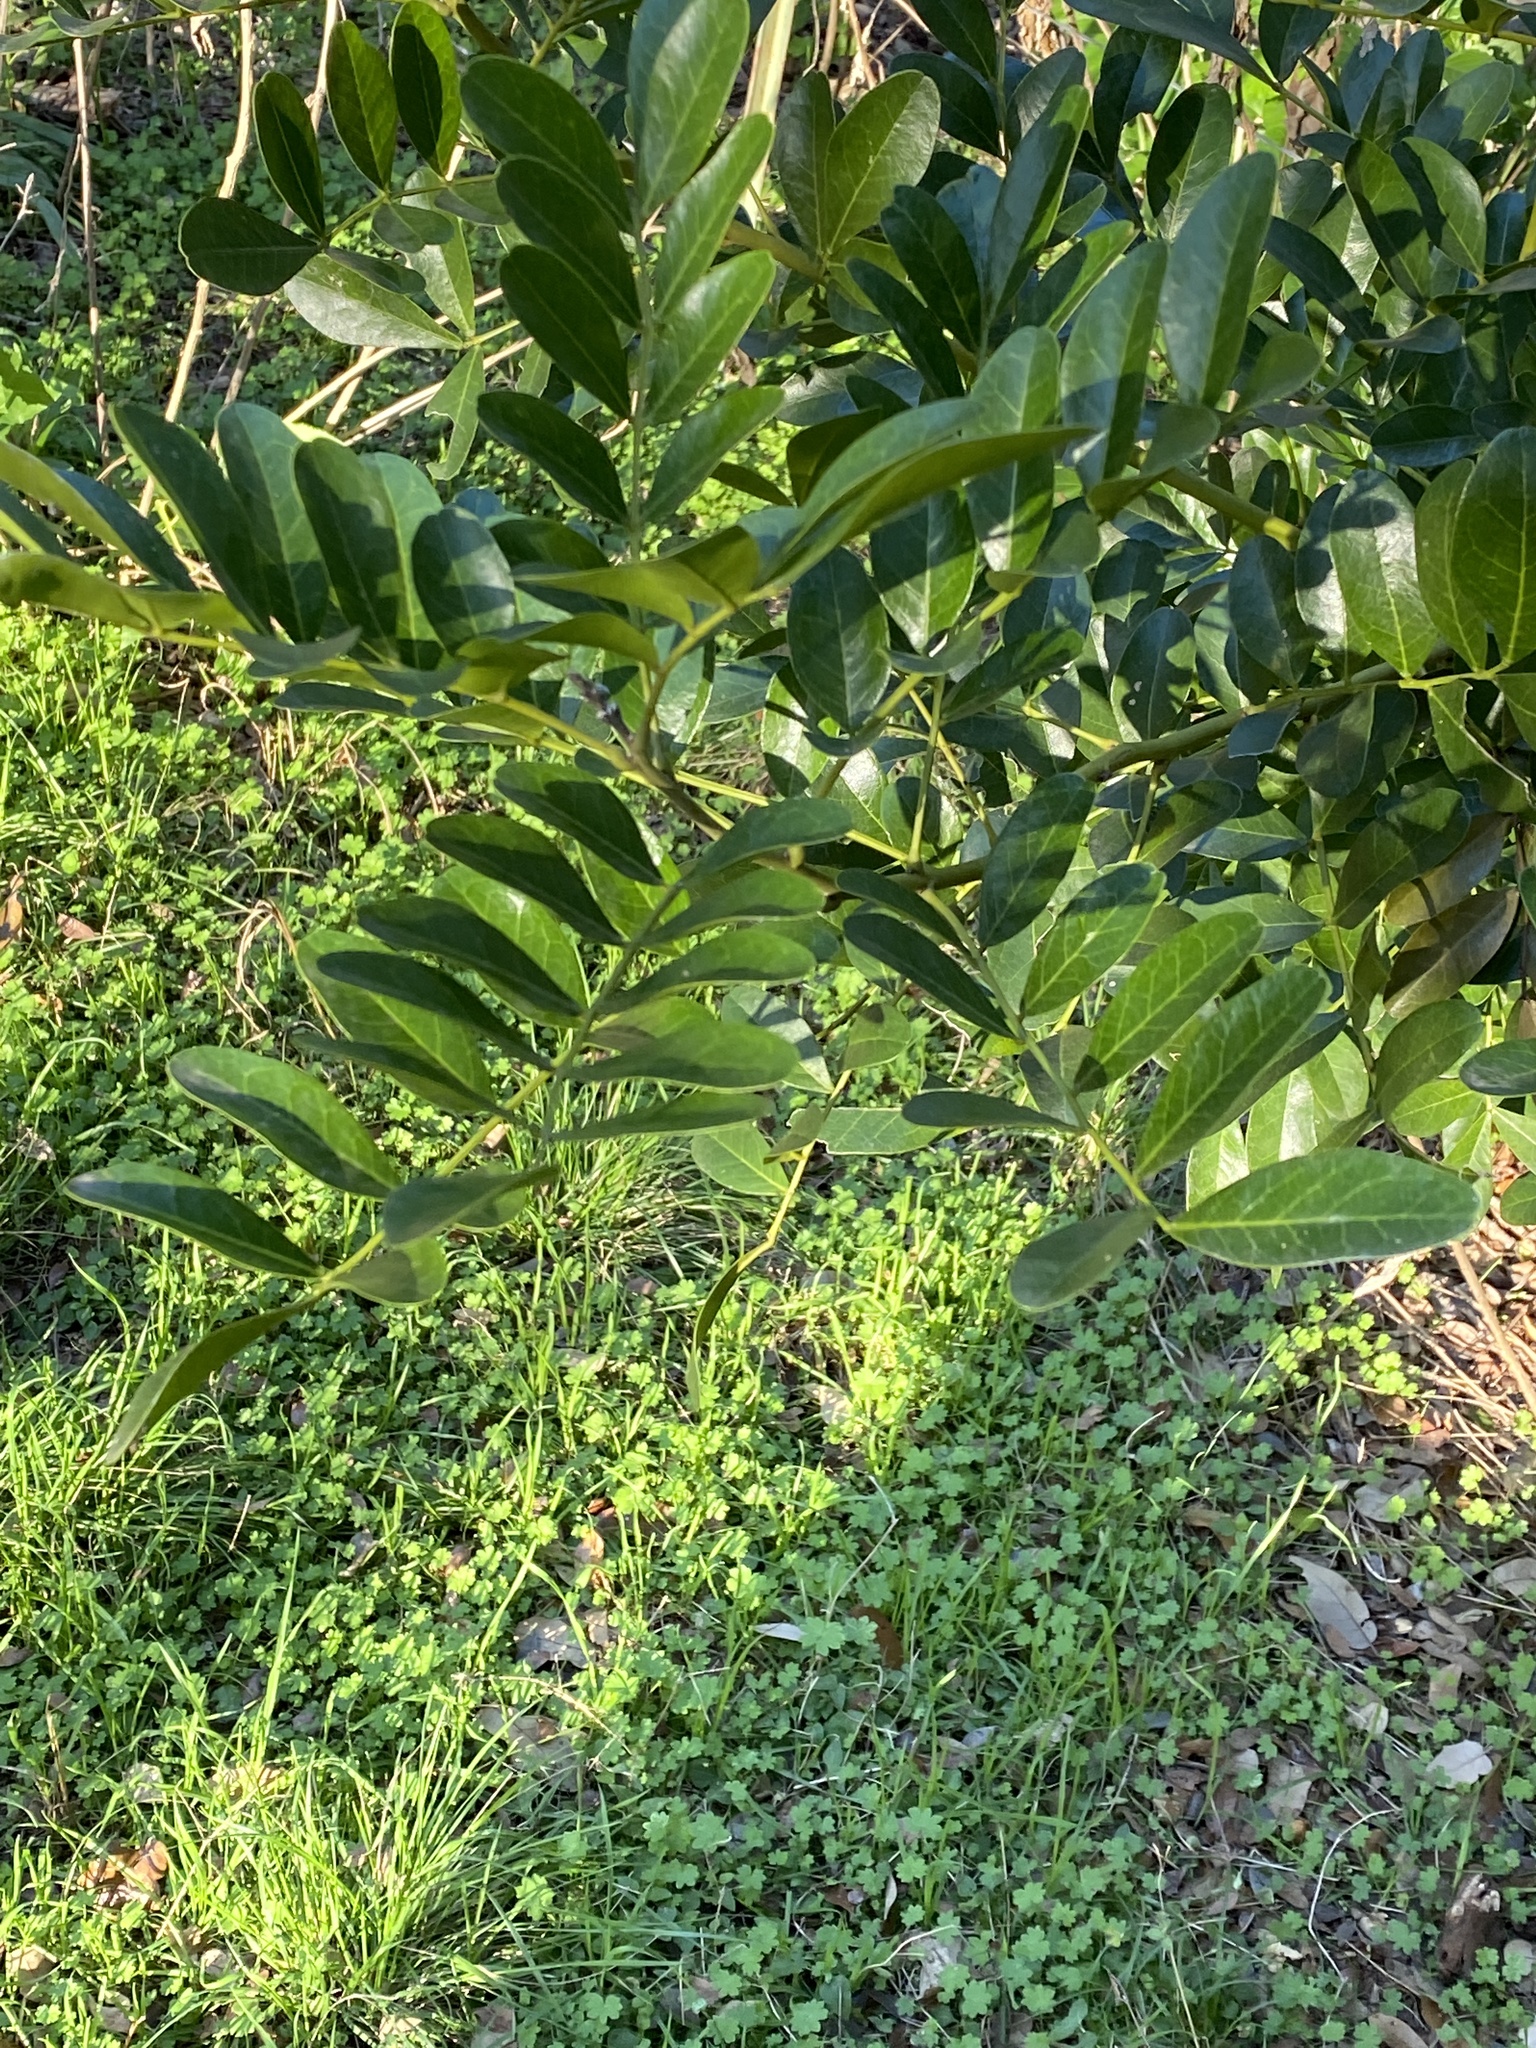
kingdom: Plantae
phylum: Tracheophyta
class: Magnoliopsida
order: Fabales
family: Fabaceae
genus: Dermatophyllum
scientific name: Dermatophyllum secundiflorum
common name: Texas-mountain-laurel
